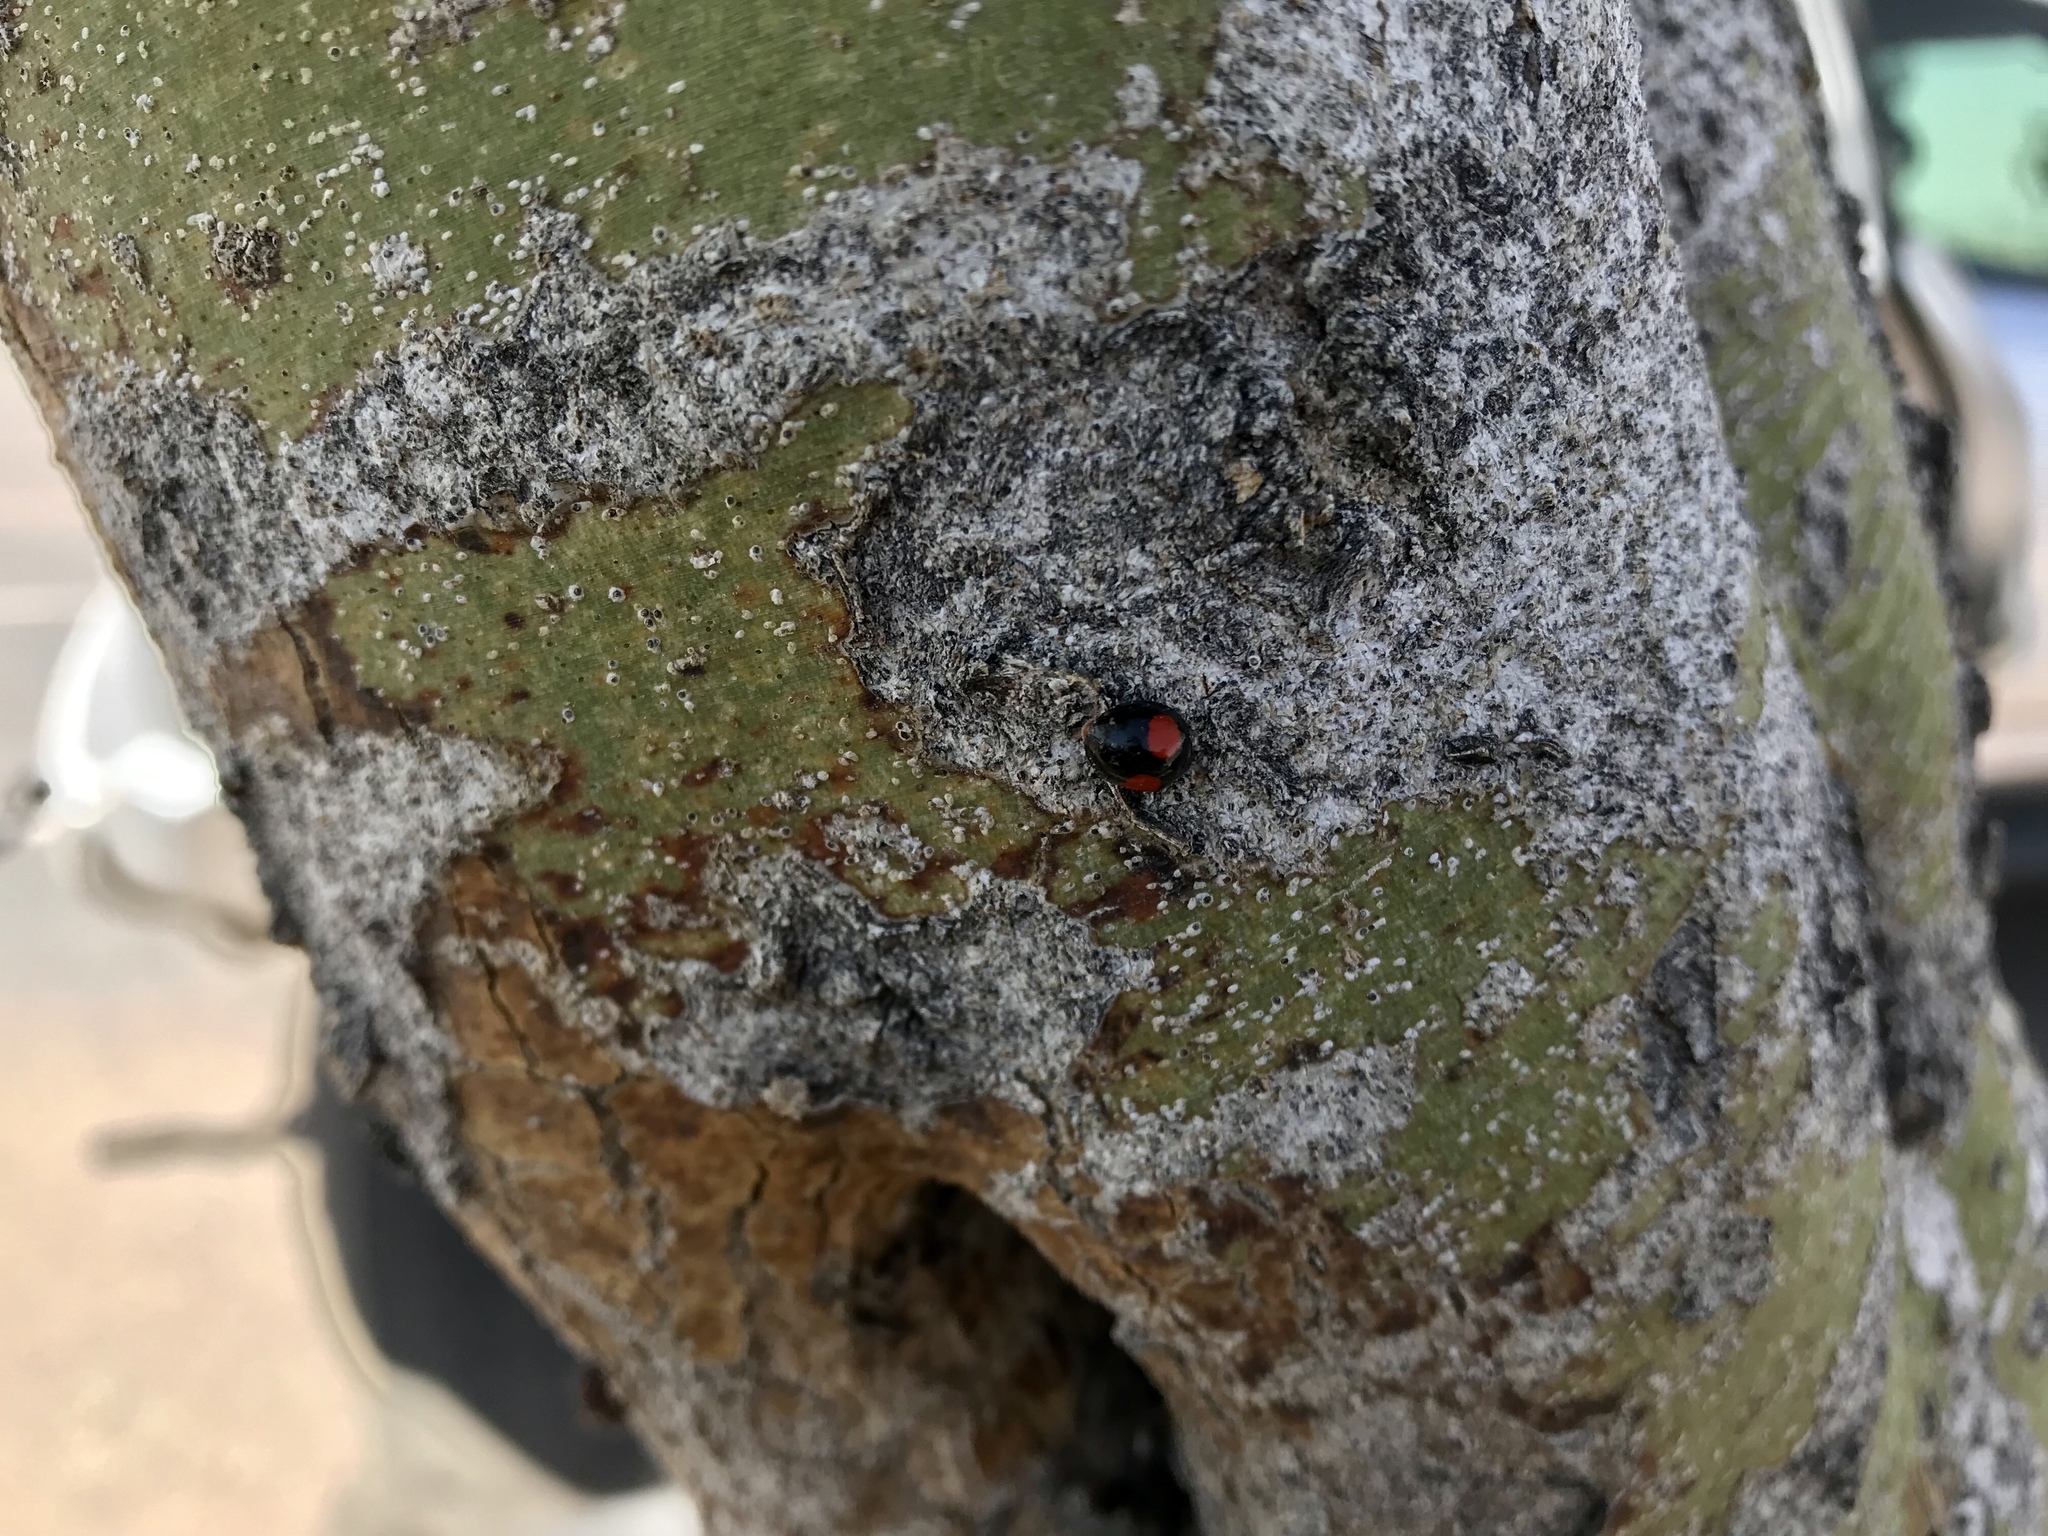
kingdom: Animalia
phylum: Arthropoda
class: Insecta
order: Coleoptera
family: Coccinellidae
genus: Chilocorus
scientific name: Chilocorus cacti
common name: Cactus lady beetle
